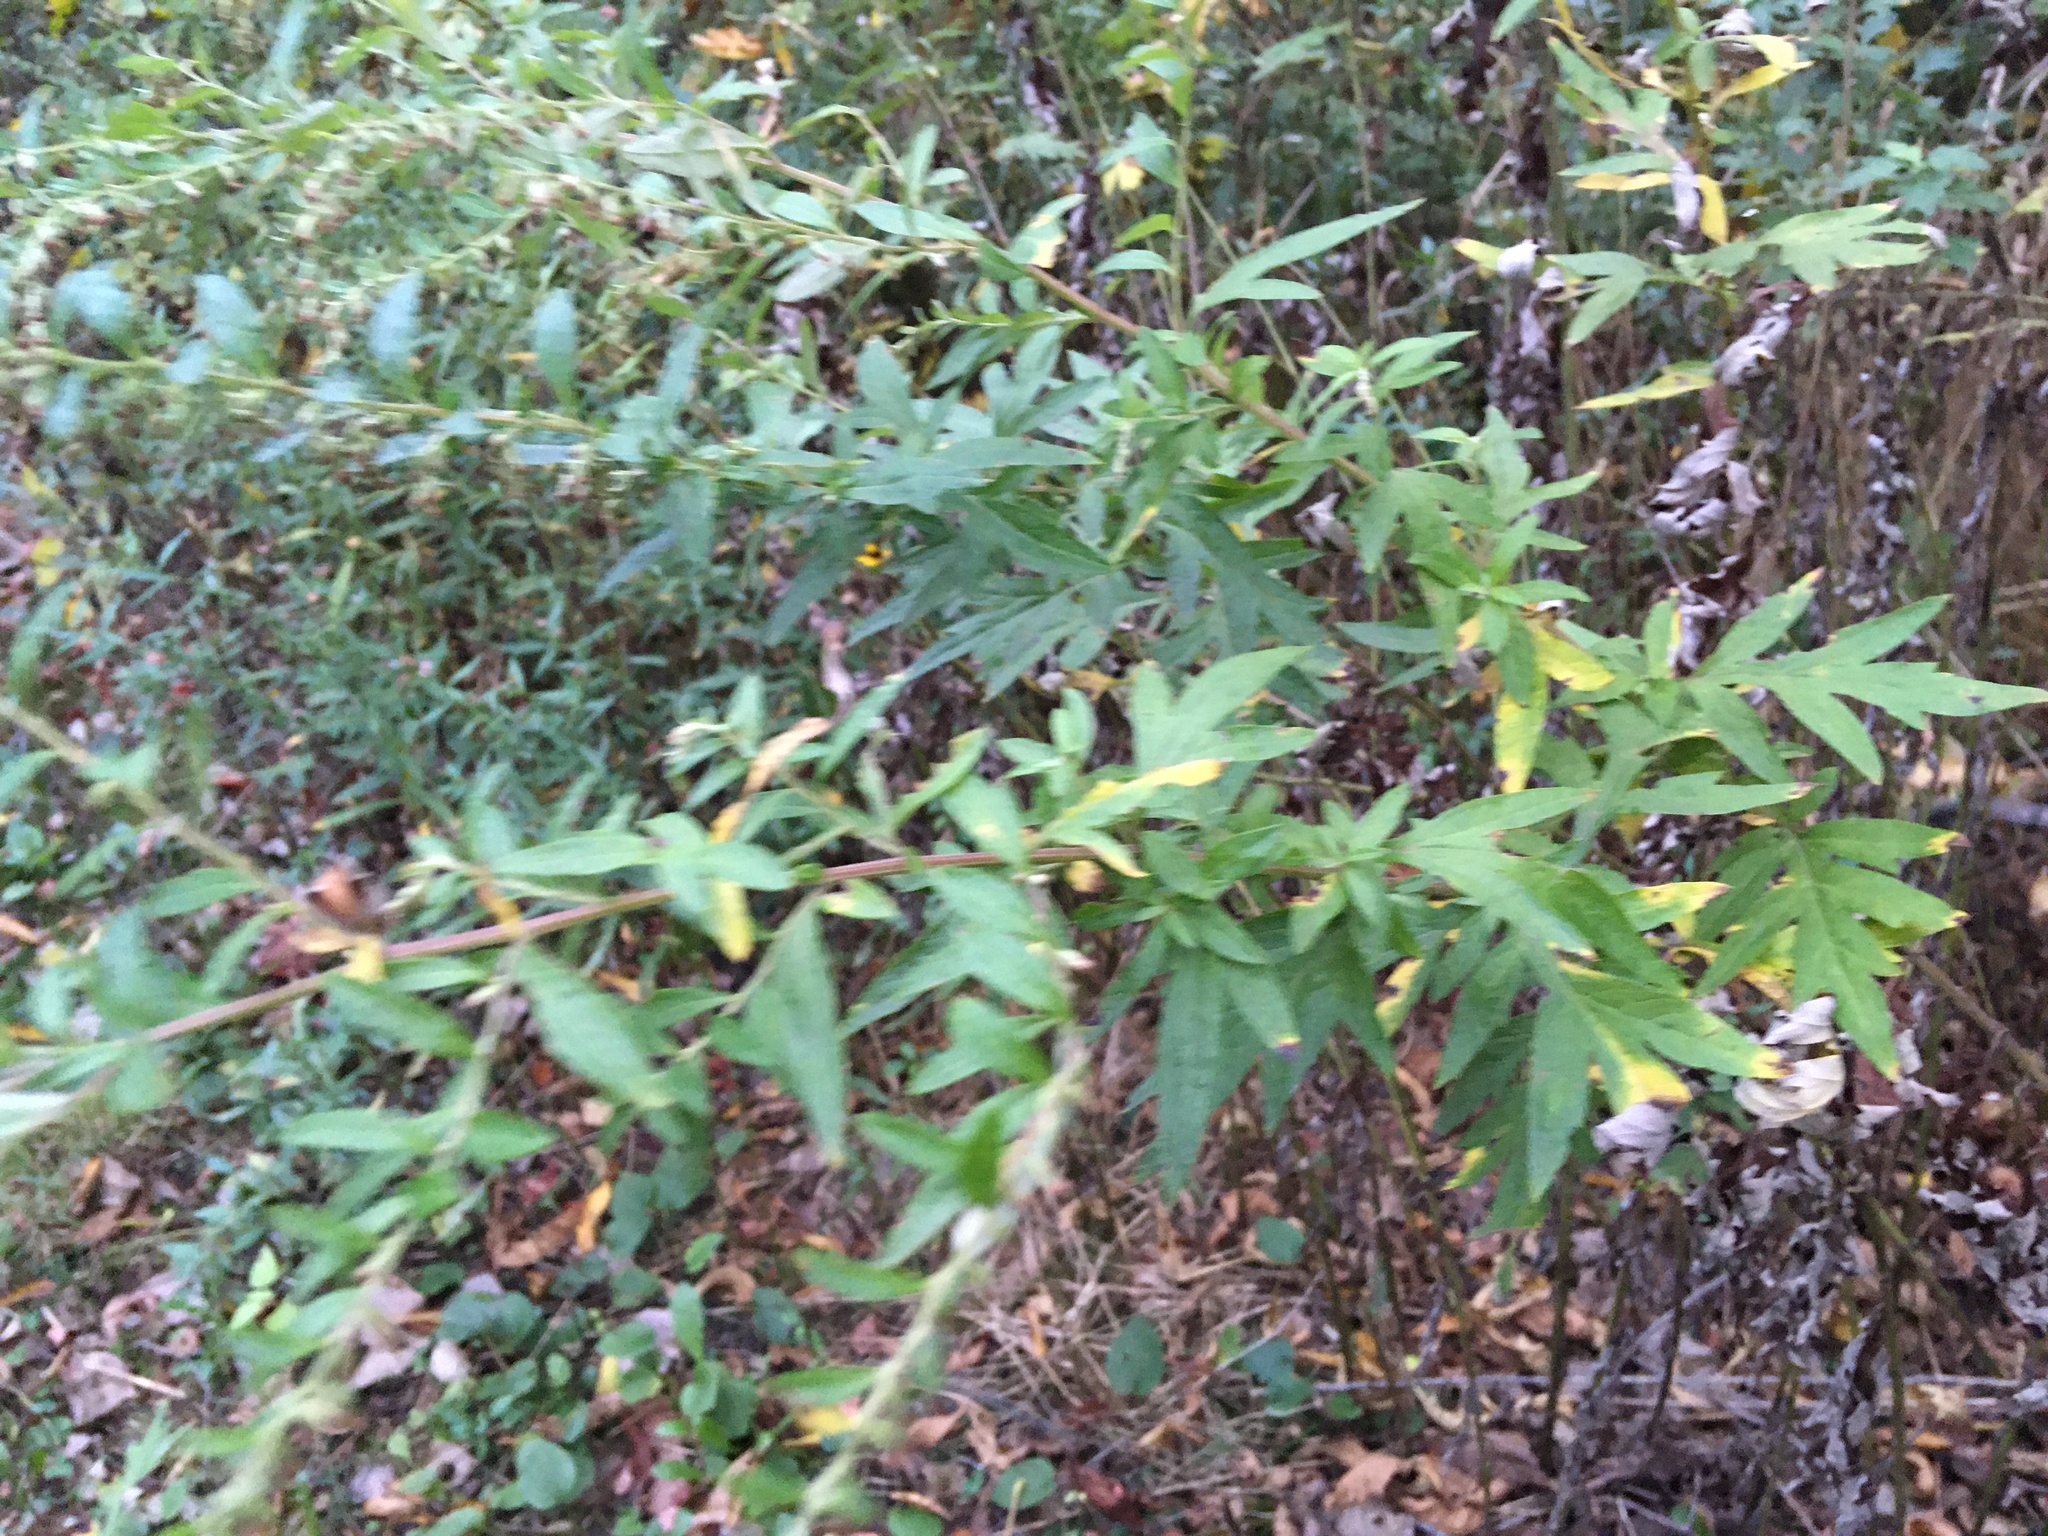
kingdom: Plantae
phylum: Tracheophyta
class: Magnoliopsida
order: Asterales
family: Asteraceae
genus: Artemisia
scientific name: Artemisia vulgaris
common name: Mugwort
